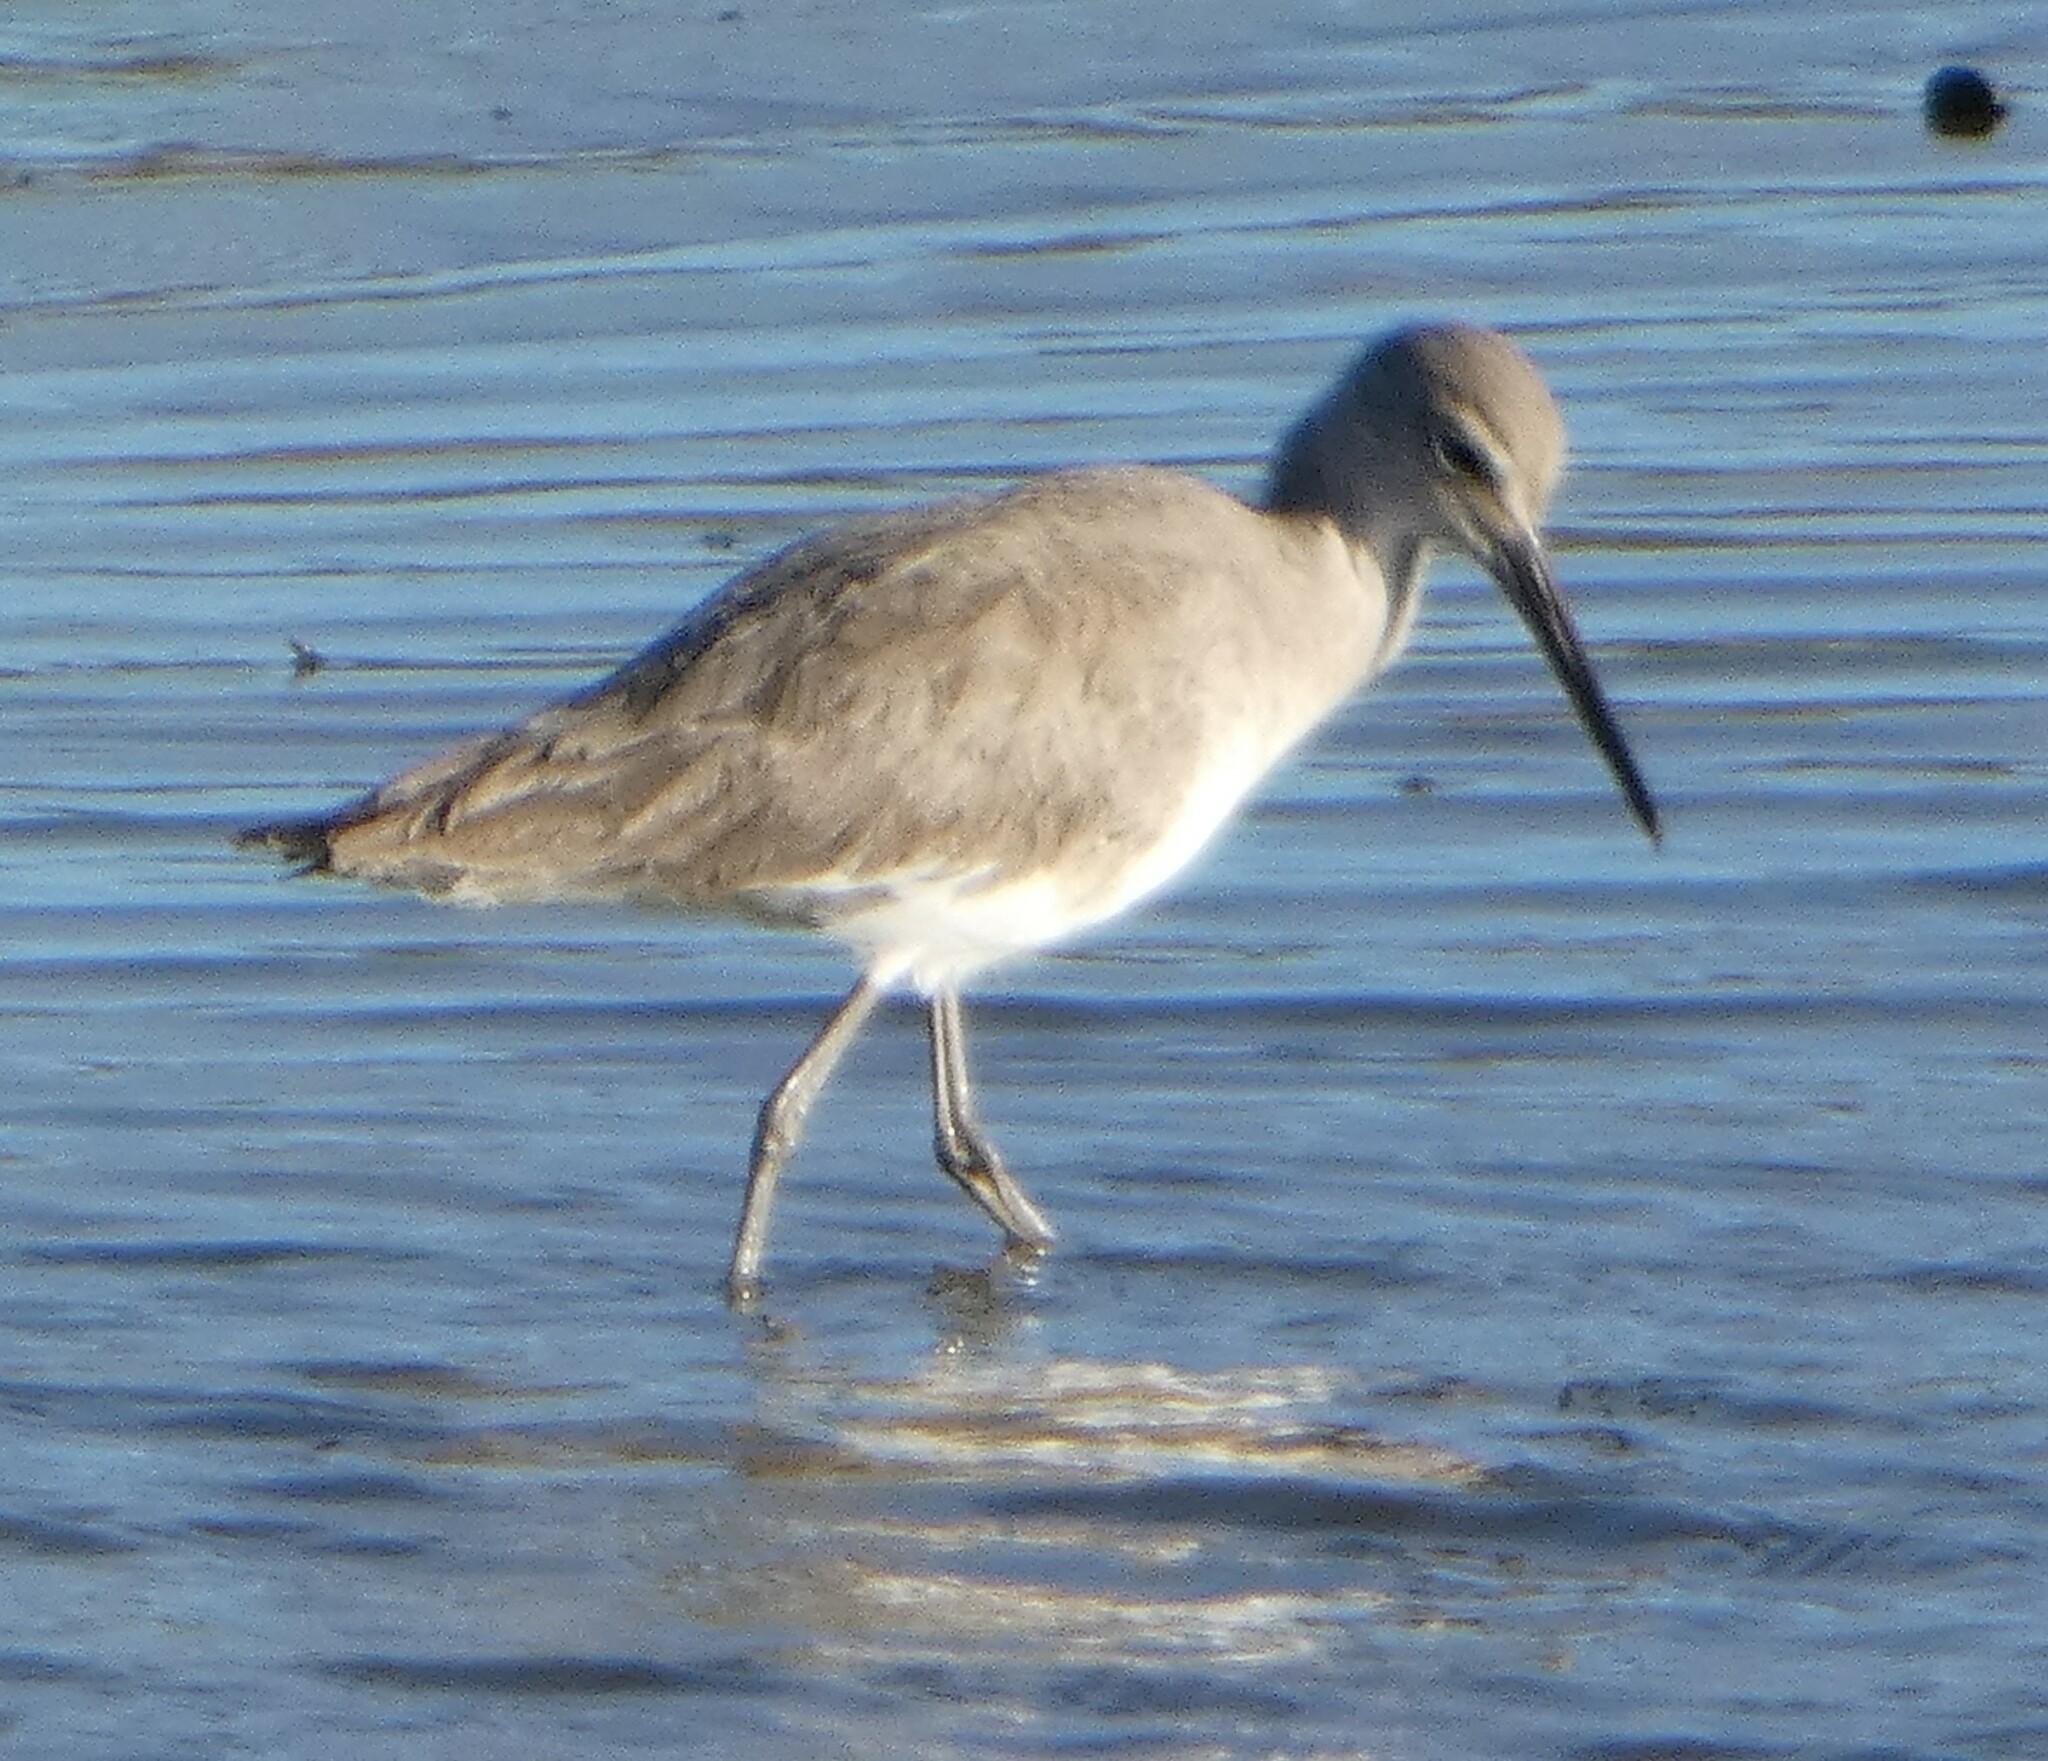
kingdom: Animalia
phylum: Chordata
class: Aves
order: Charadriiformes
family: Scolopacidae
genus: Tringa
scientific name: Tringa semipalmata
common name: Willet
